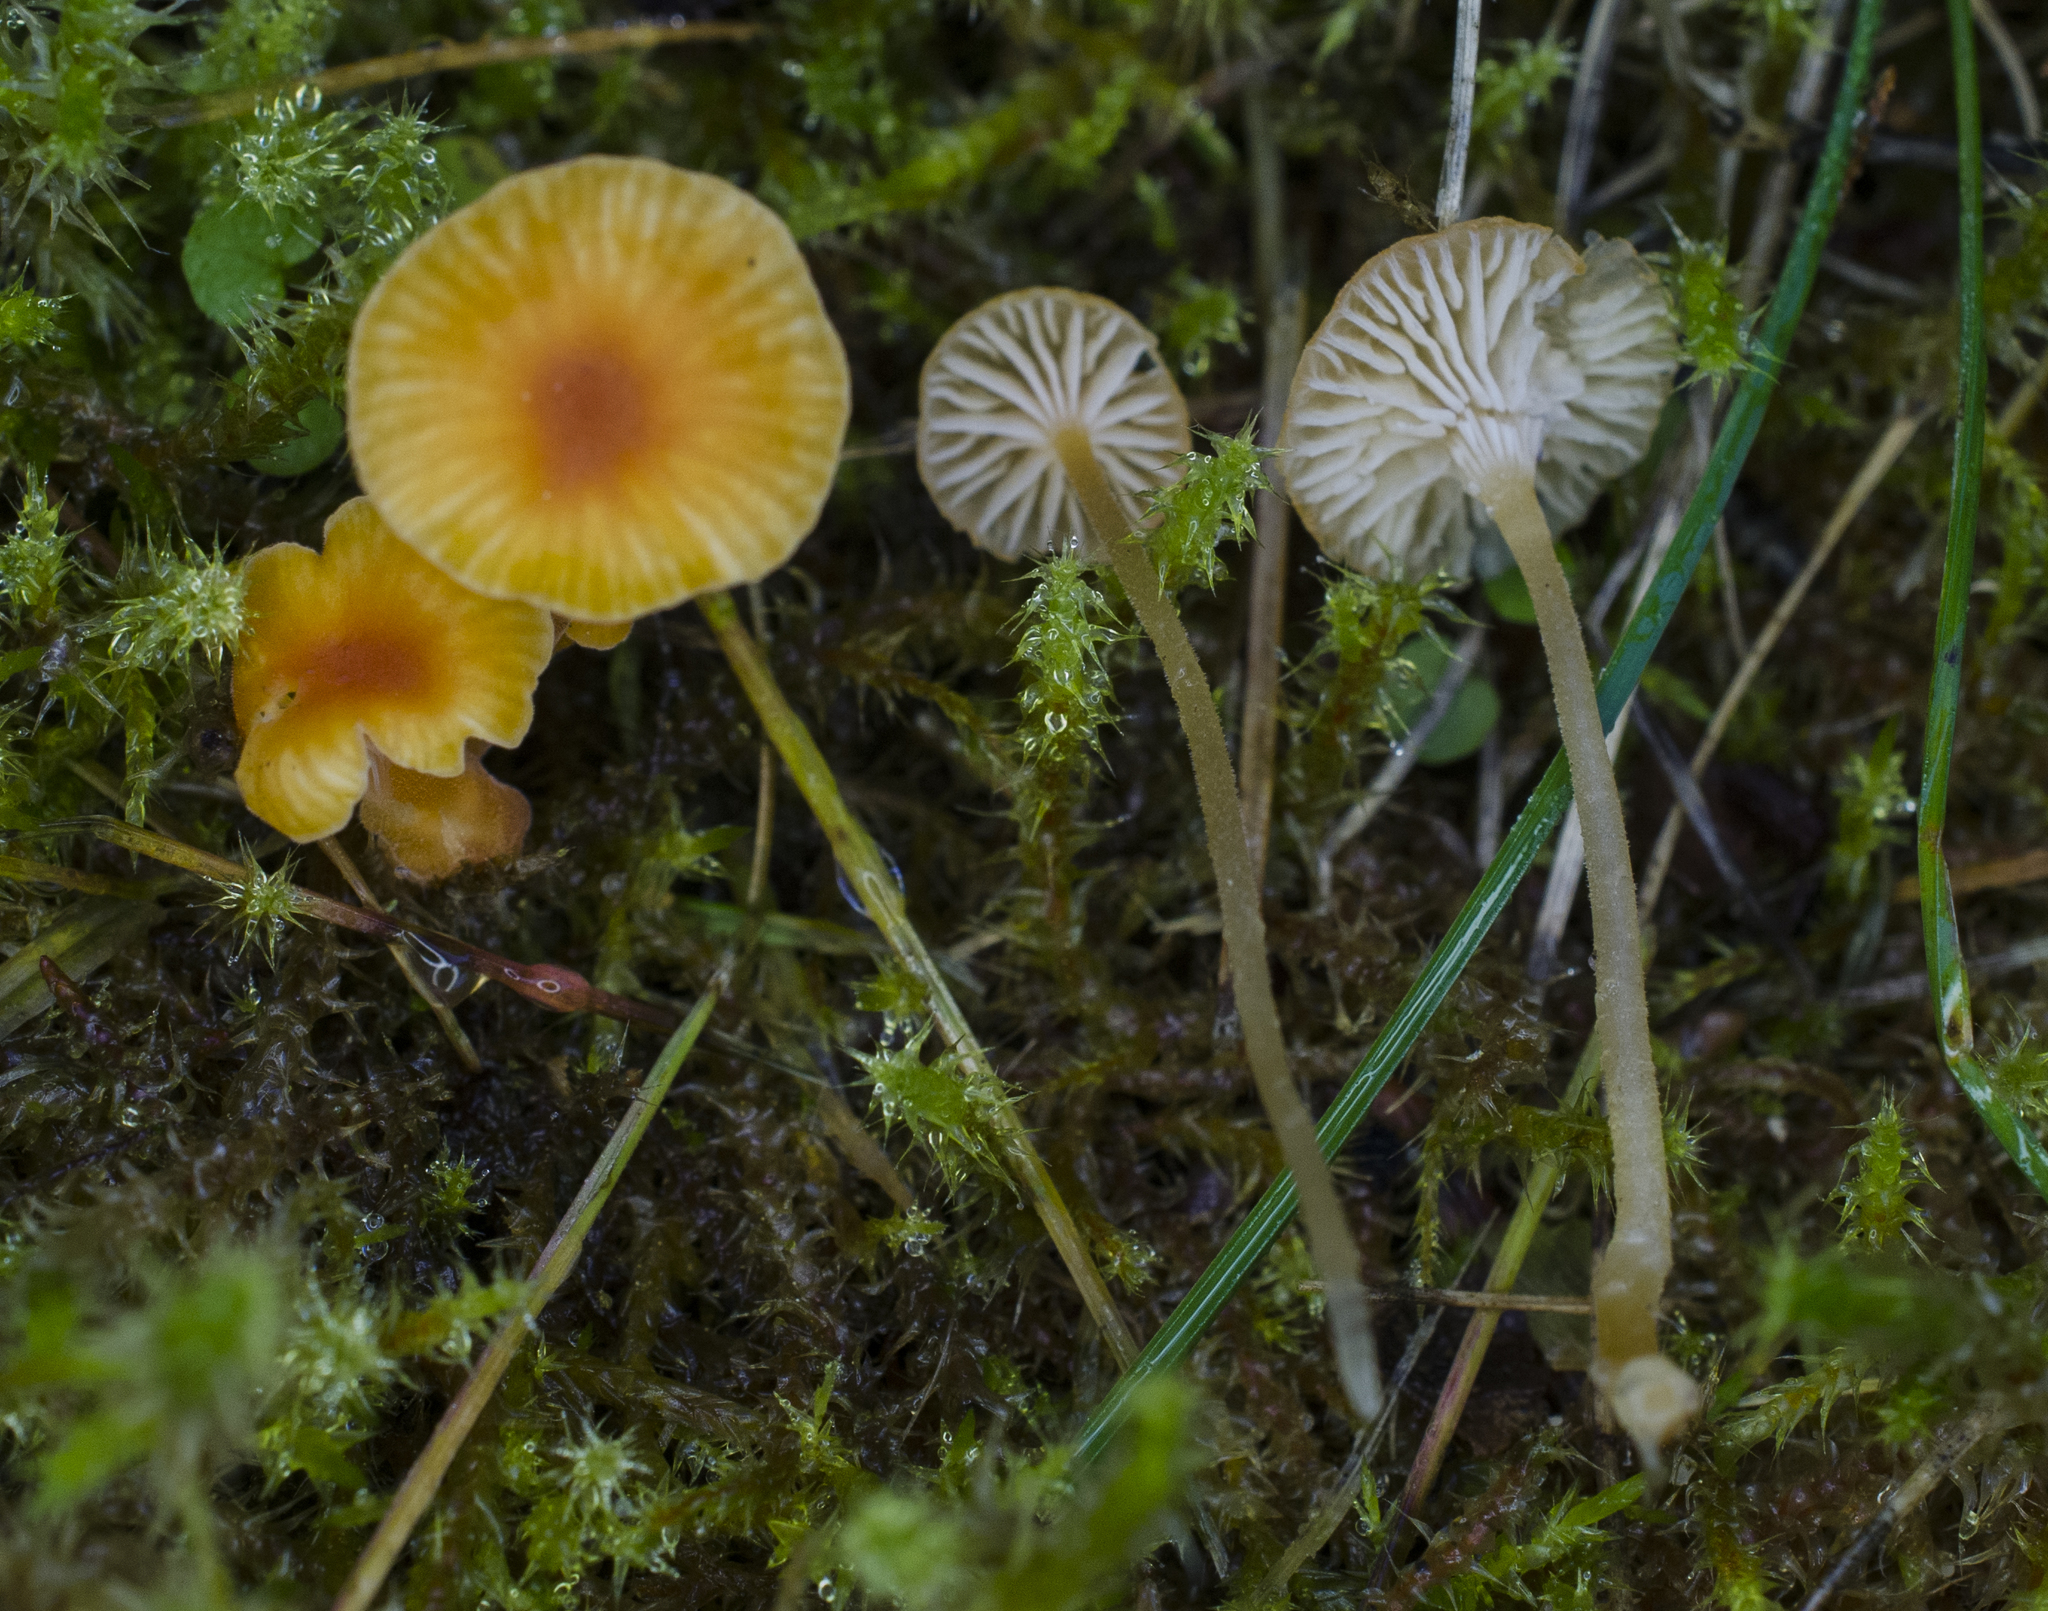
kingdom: Fungi
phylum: Basidiomycota
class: Agaricomycetes
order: Hymenochaetales
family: Rickenellaceae
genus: Rickenella
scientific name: Rickenella fibula
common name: Orange mosscap
